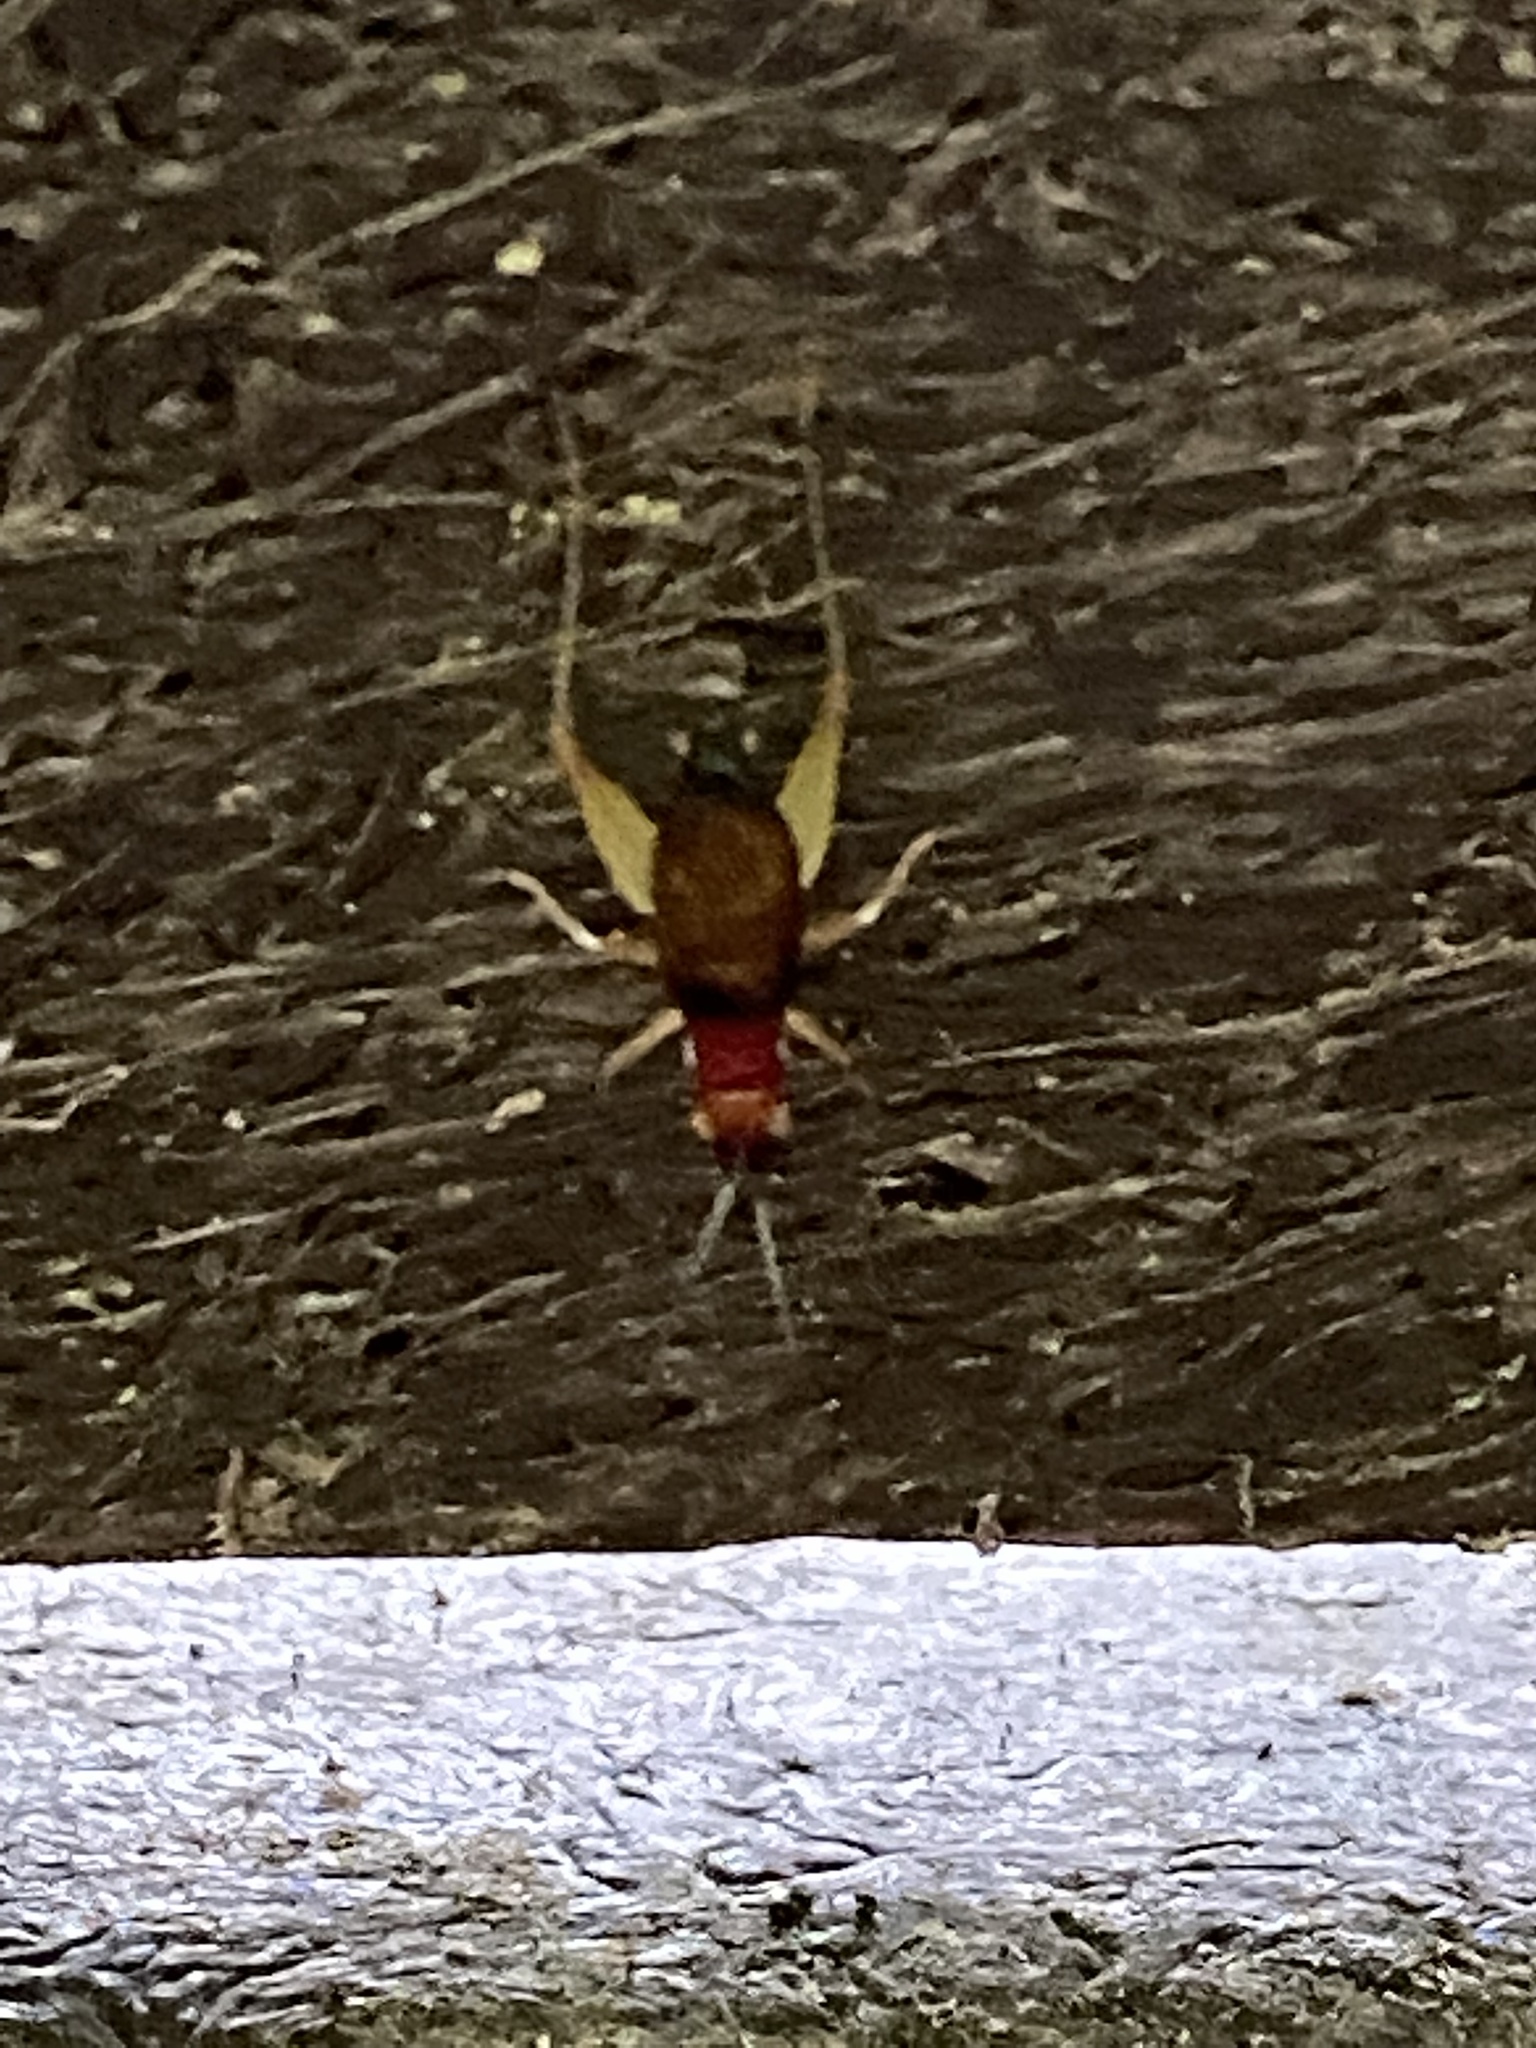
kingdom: Animalia
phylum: Arthropoda
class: Insecta
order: Orthoptera
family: Trigonidiidae
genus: Phyllopalpus
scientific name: Phyllopalpus pulchellus
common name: Handsome trig
